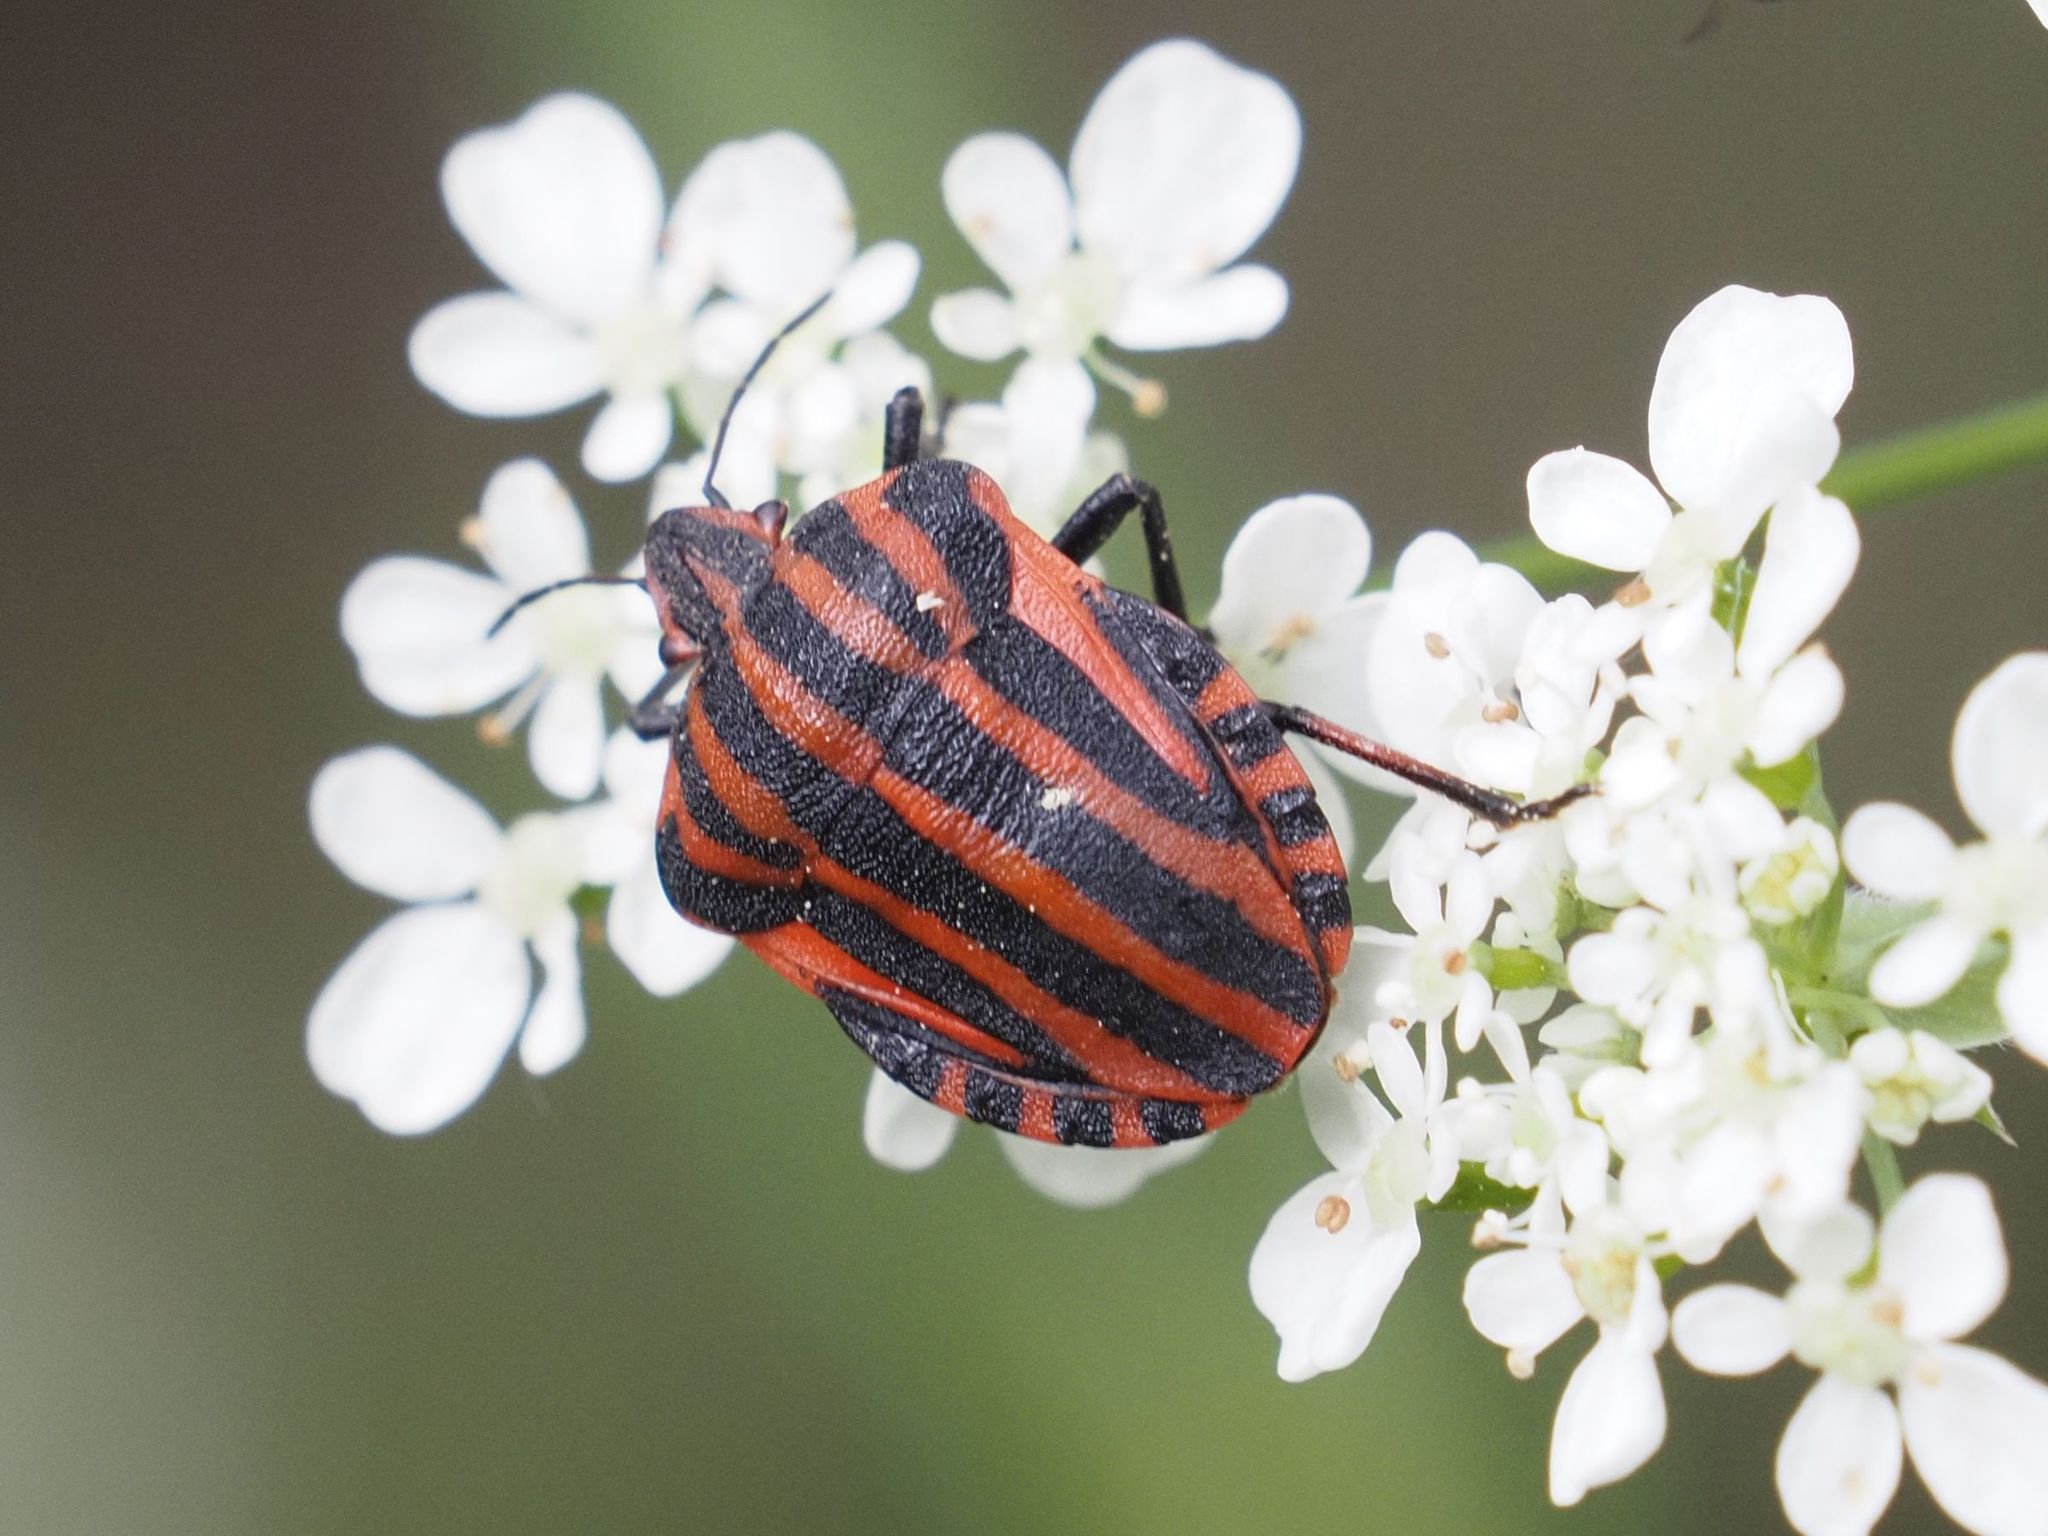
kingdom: Animalia
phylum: Arthropoda
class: Insecta
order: Hemiptera
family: Pentatomidae
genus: Graphosoma
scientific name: Graphosoma italicum
